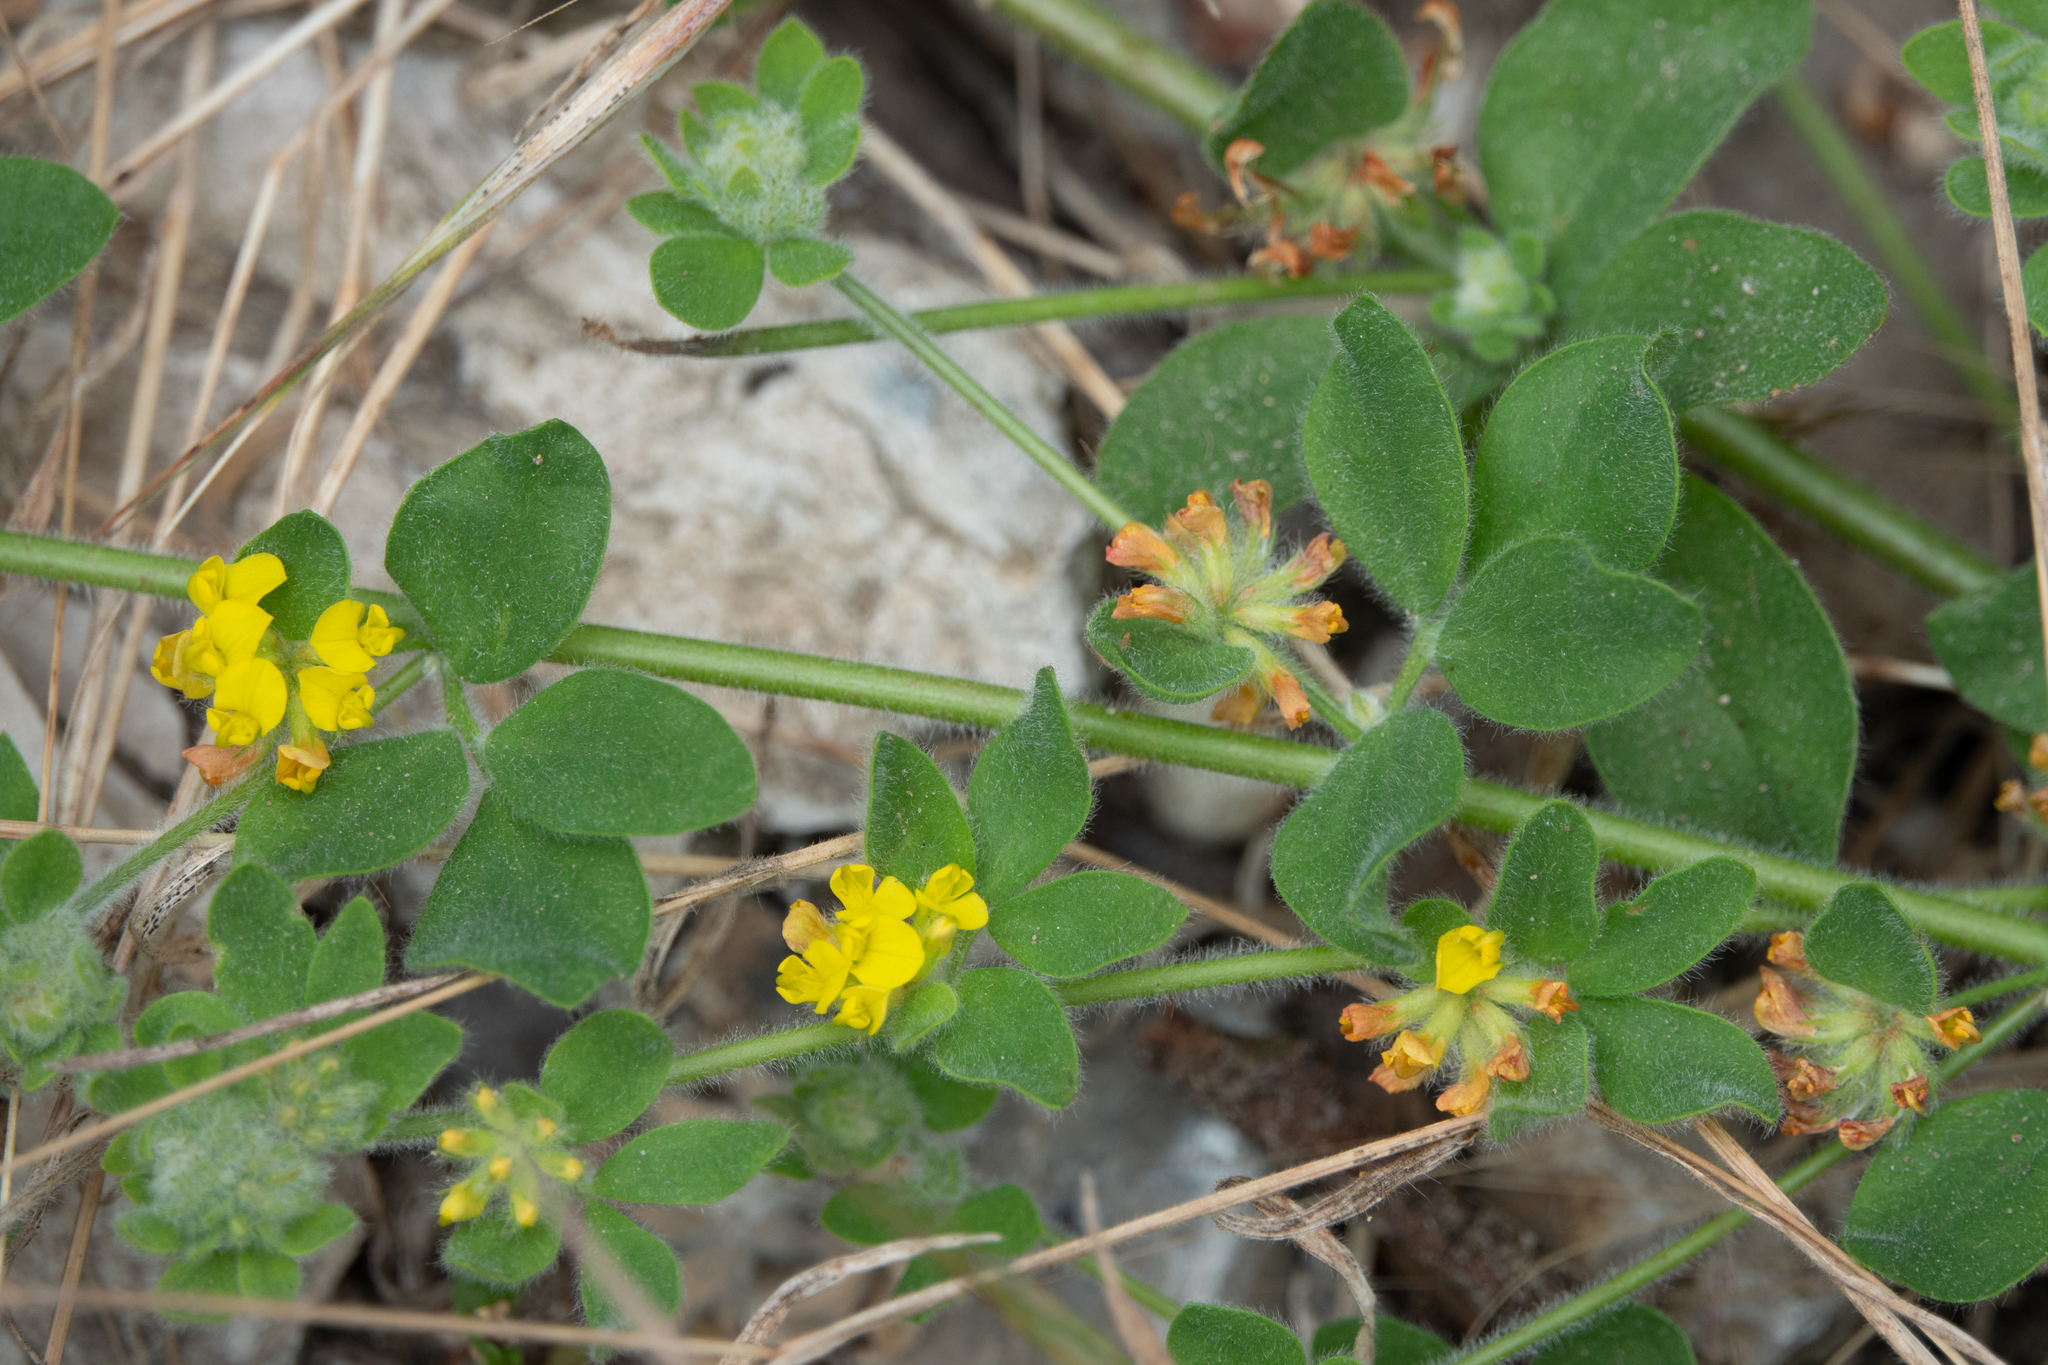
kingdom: Plantae
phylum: Tracheophyta
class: Magnoliopsida
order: Fabales
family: Fabaceae
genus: Acmispon
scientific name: Acmispon tomentosus
